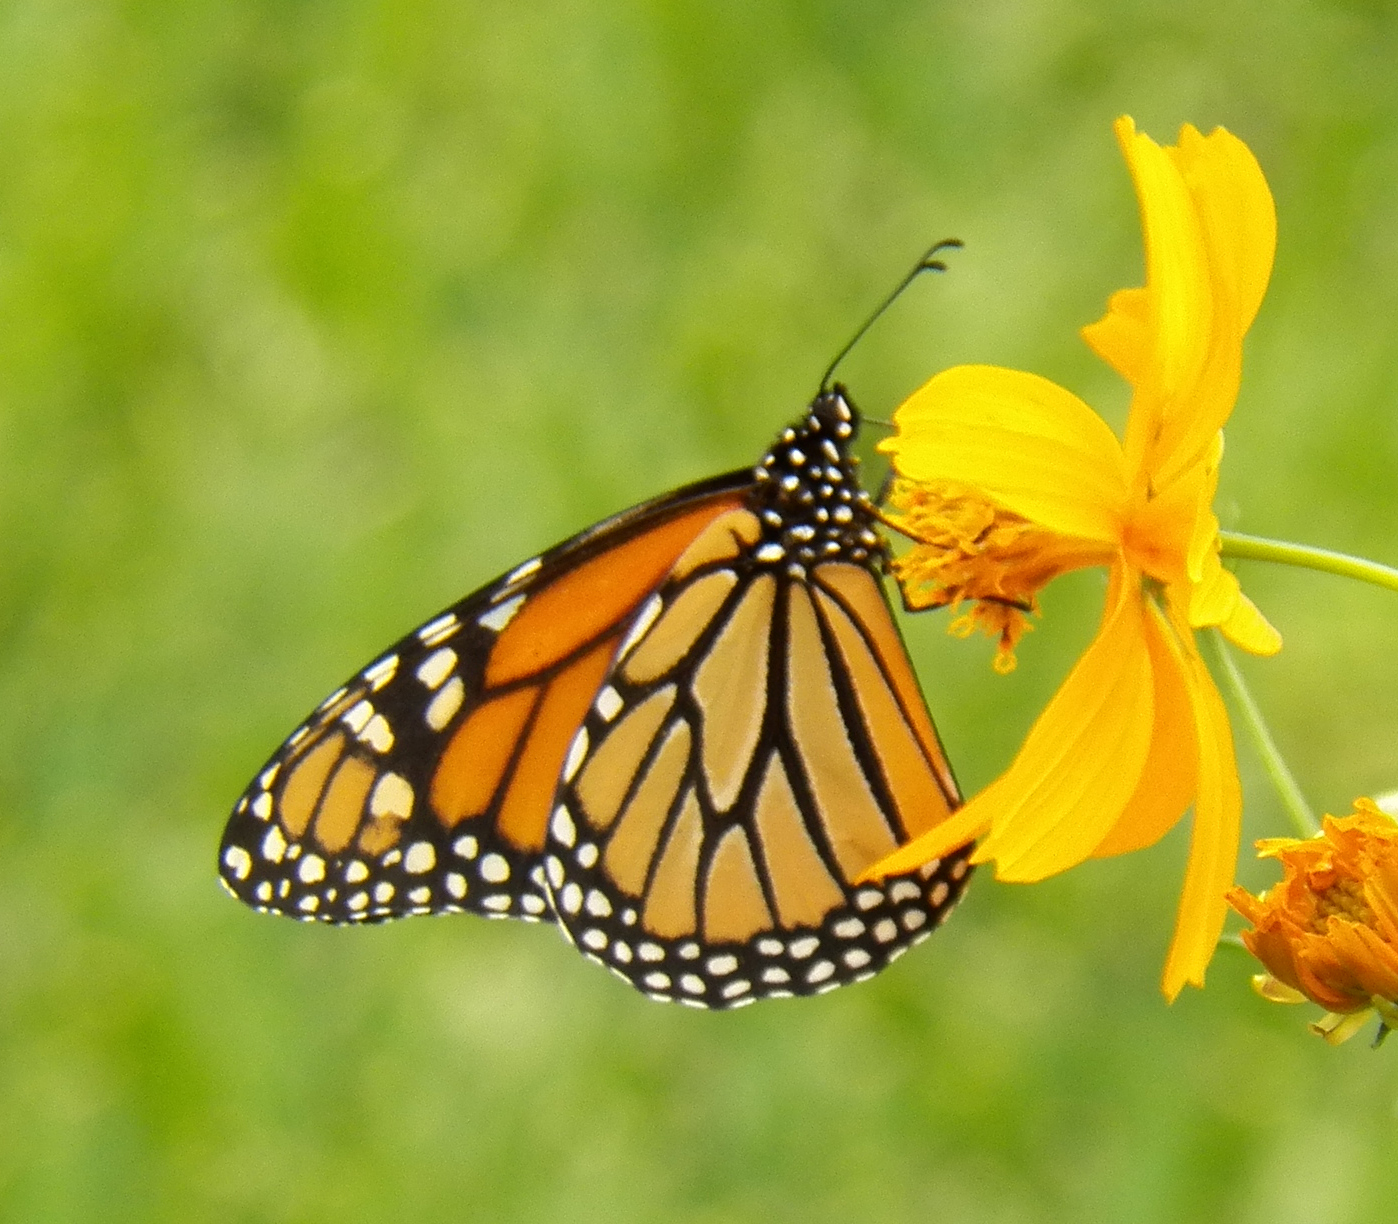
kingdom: Animalia
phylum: Arthropoda
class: Insecta
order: Lepidoptera
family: Nymphalidae
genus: Danaus
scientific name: Danaus plexippus
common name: Monarch
